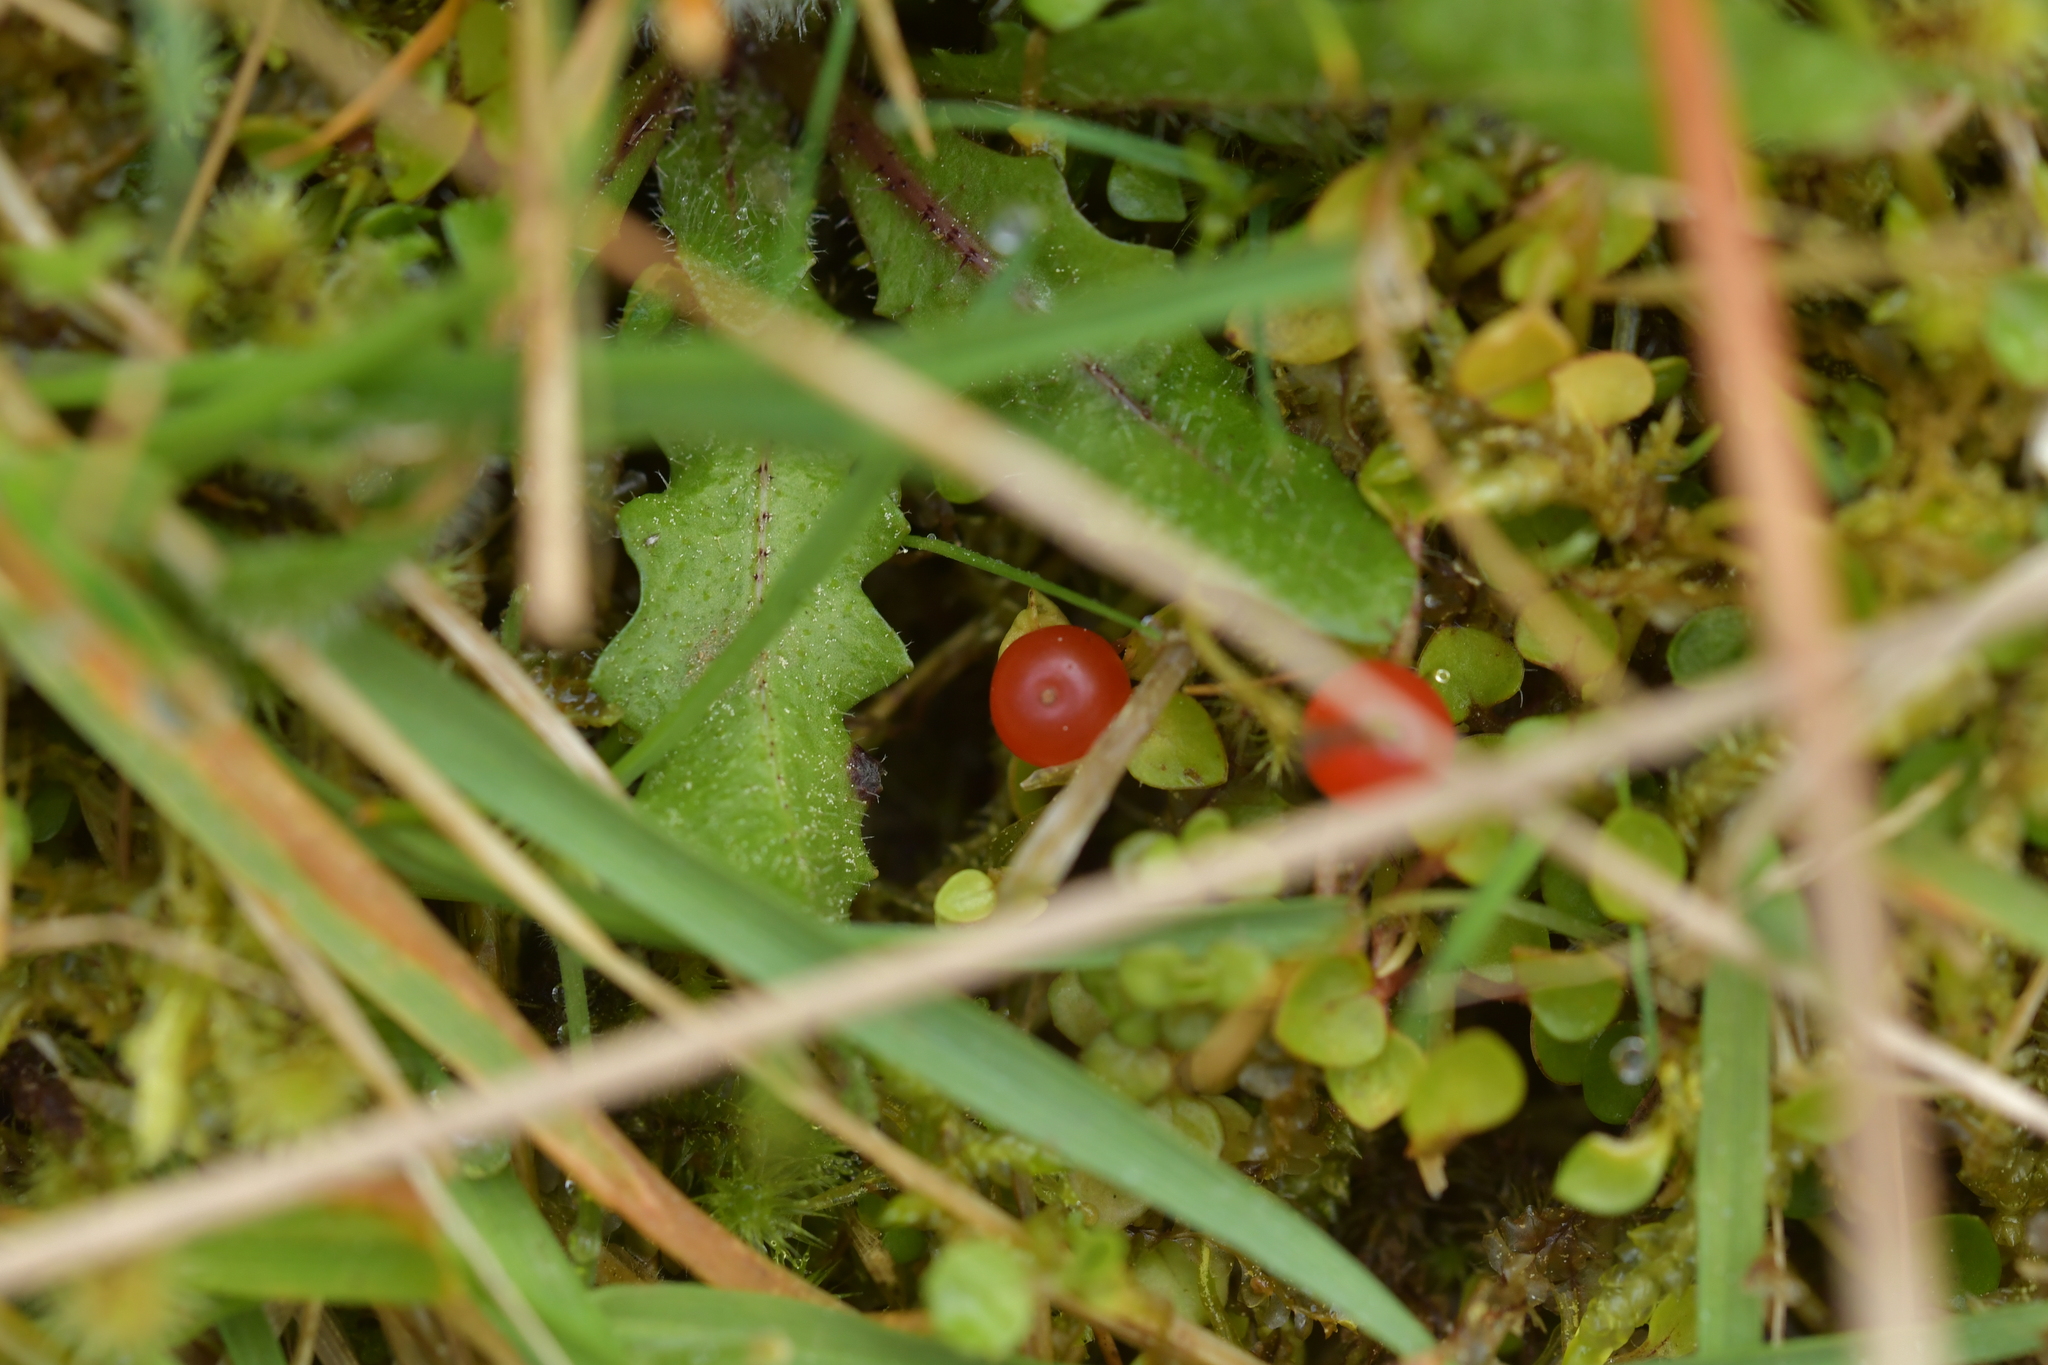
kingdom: Plantae
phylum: Tracheophyta
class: Magnoliopsida
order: Gentianales
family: Rubiaceae
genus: Nertera
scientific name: Nertera granadensis
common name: Beadplant
